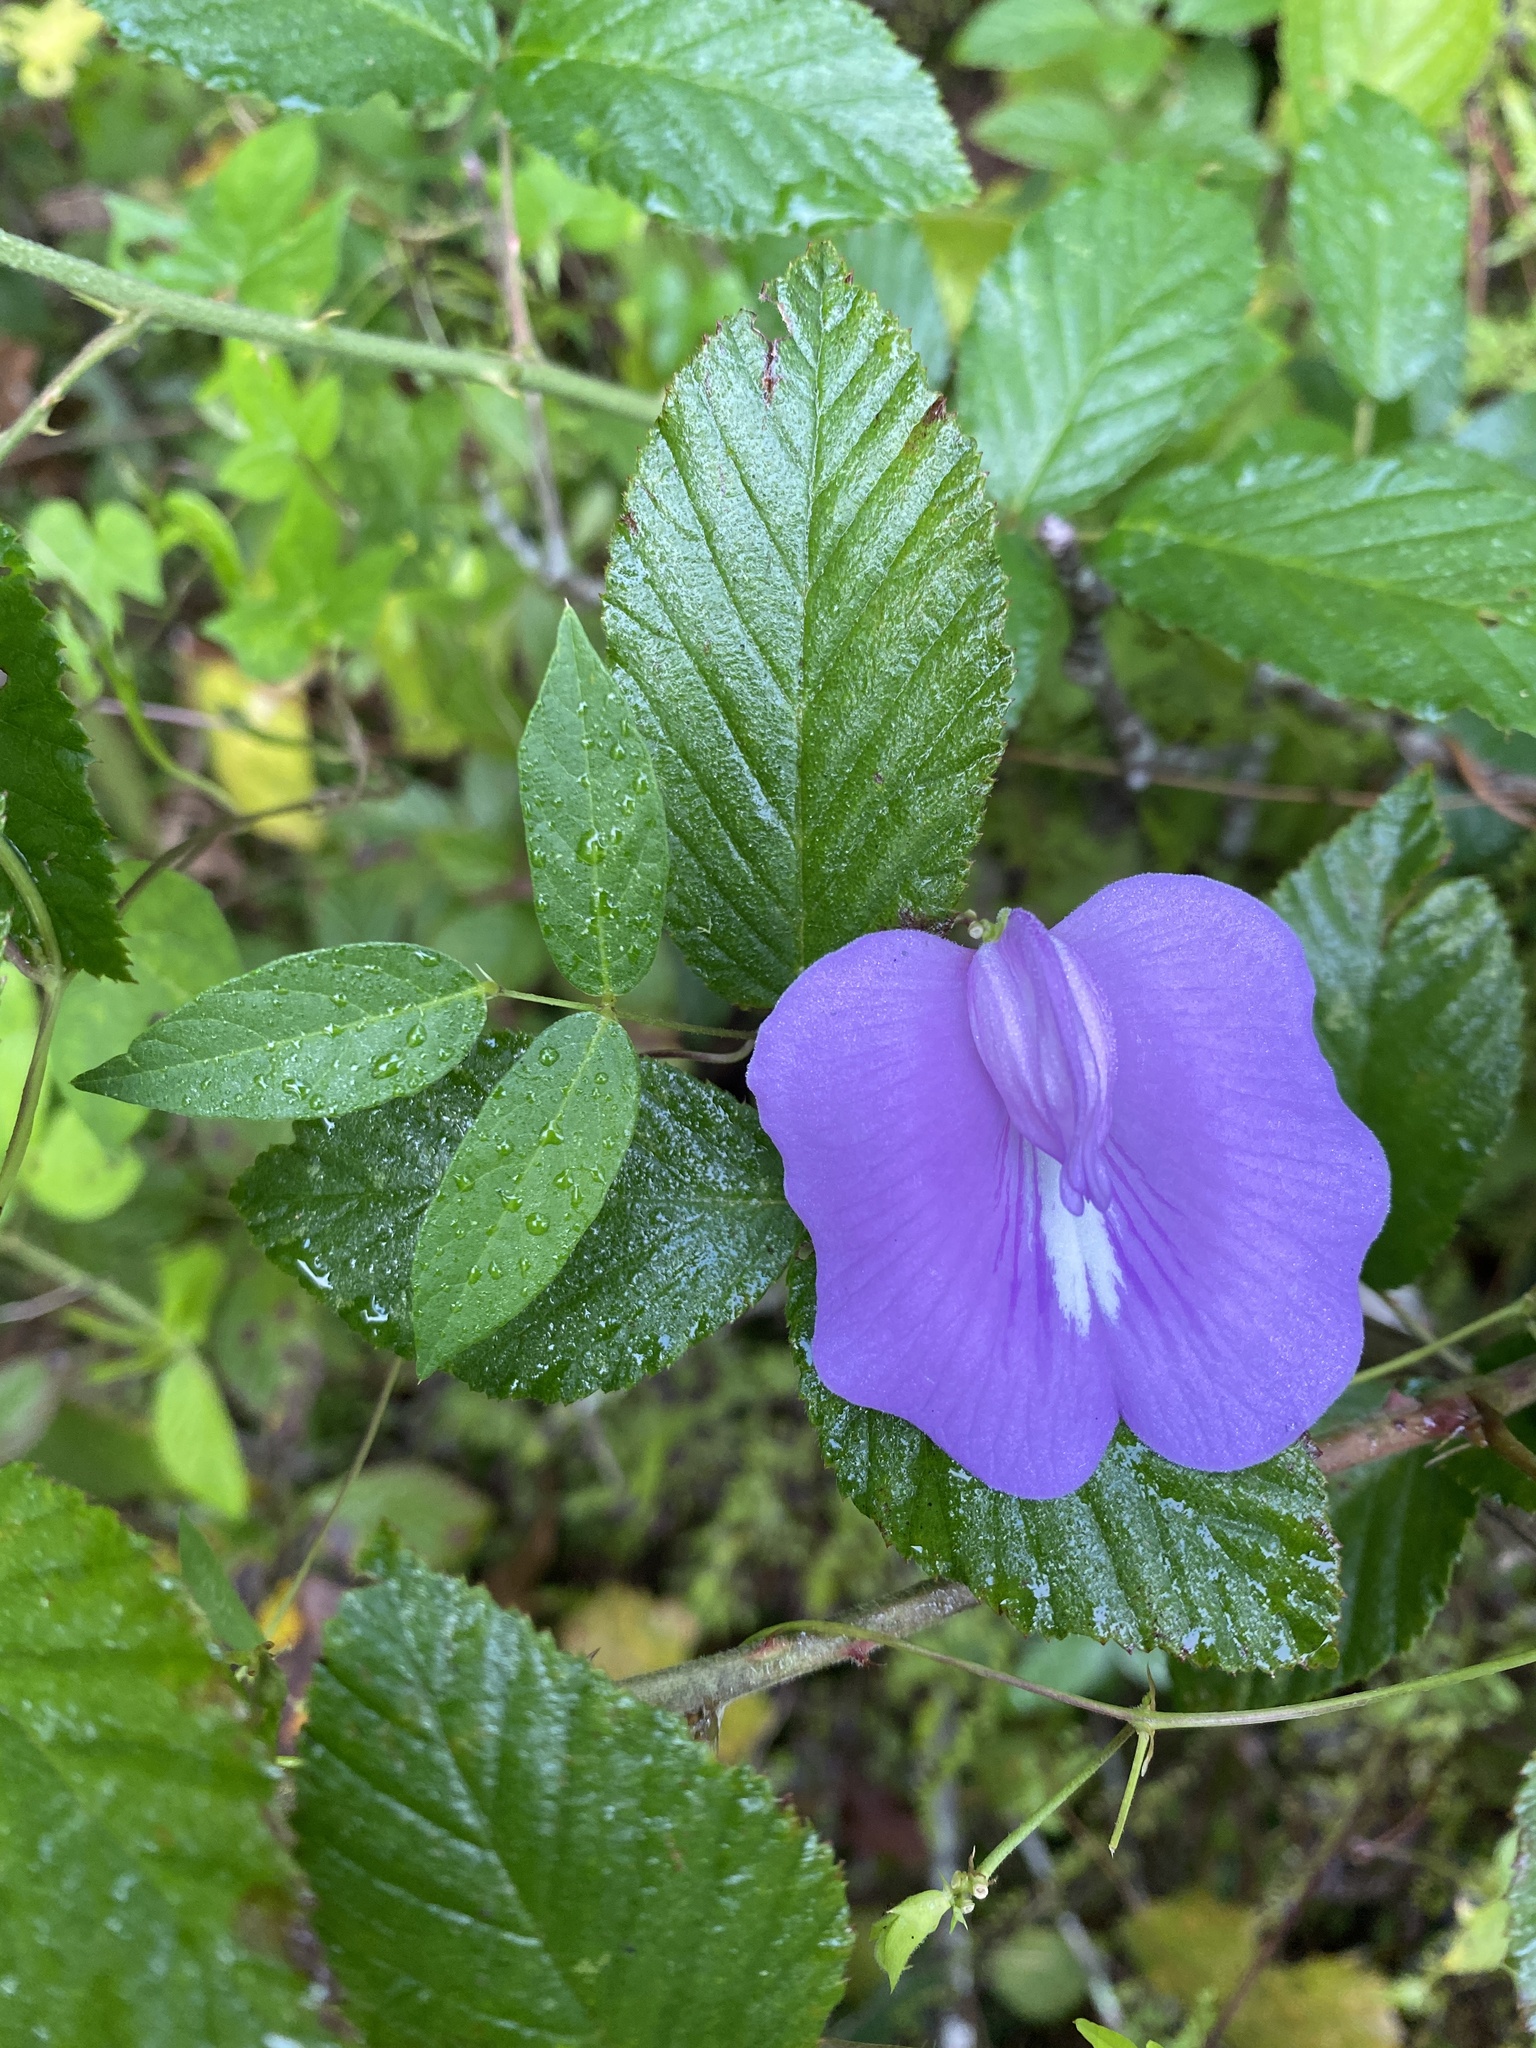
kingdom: Plantae
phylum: Tracheophyta
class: Magnoliopsida
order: Fabales
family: Fabaceae
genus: Centrosema
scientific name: Centrosema virginianum
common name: Butterfly-pea
